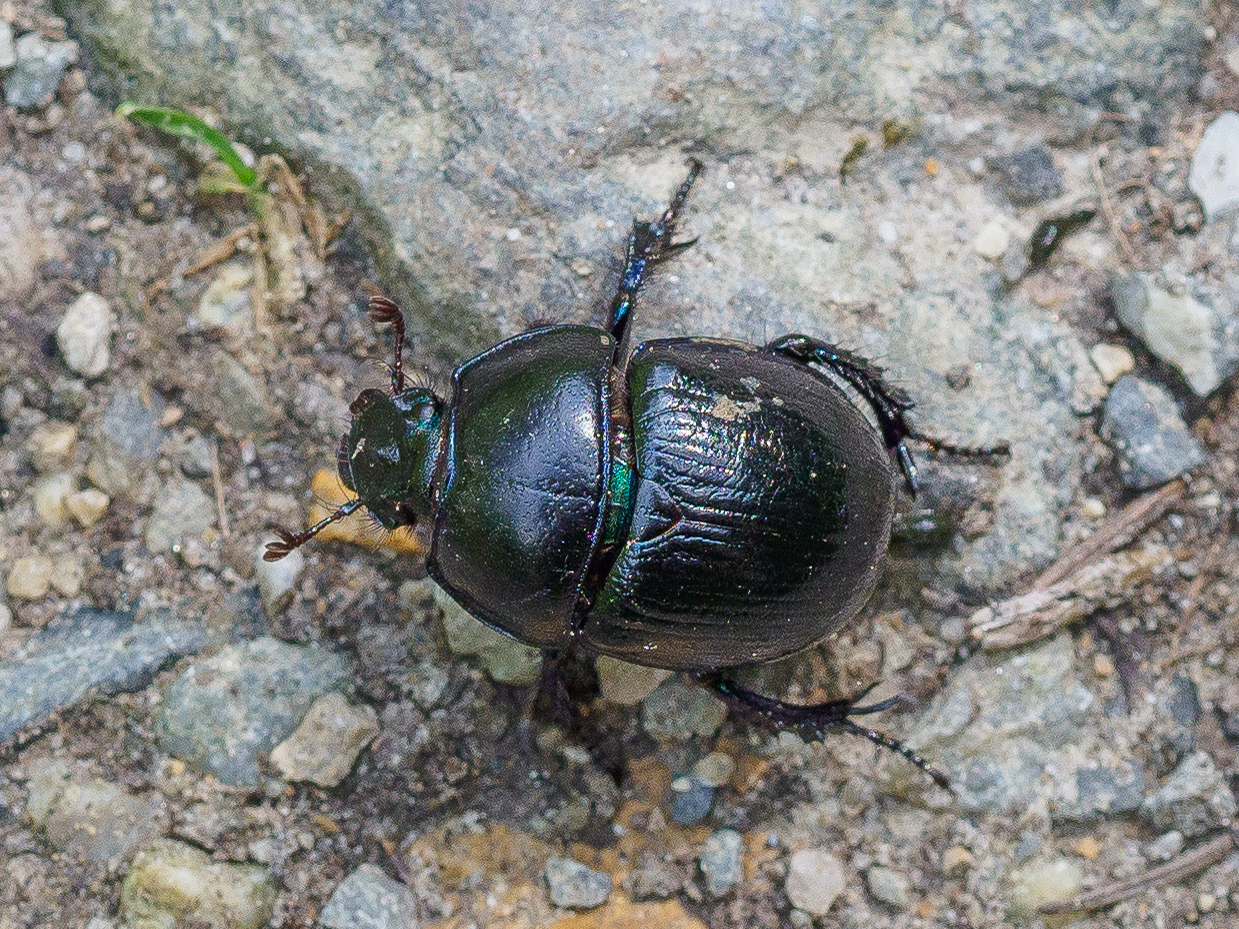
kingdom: Animalia
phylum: Arthropoda
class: Insecta
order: Coleoptera
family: Geotrupidae
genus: Anoplotrupes
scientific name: Anoplotrupes stercorosus
